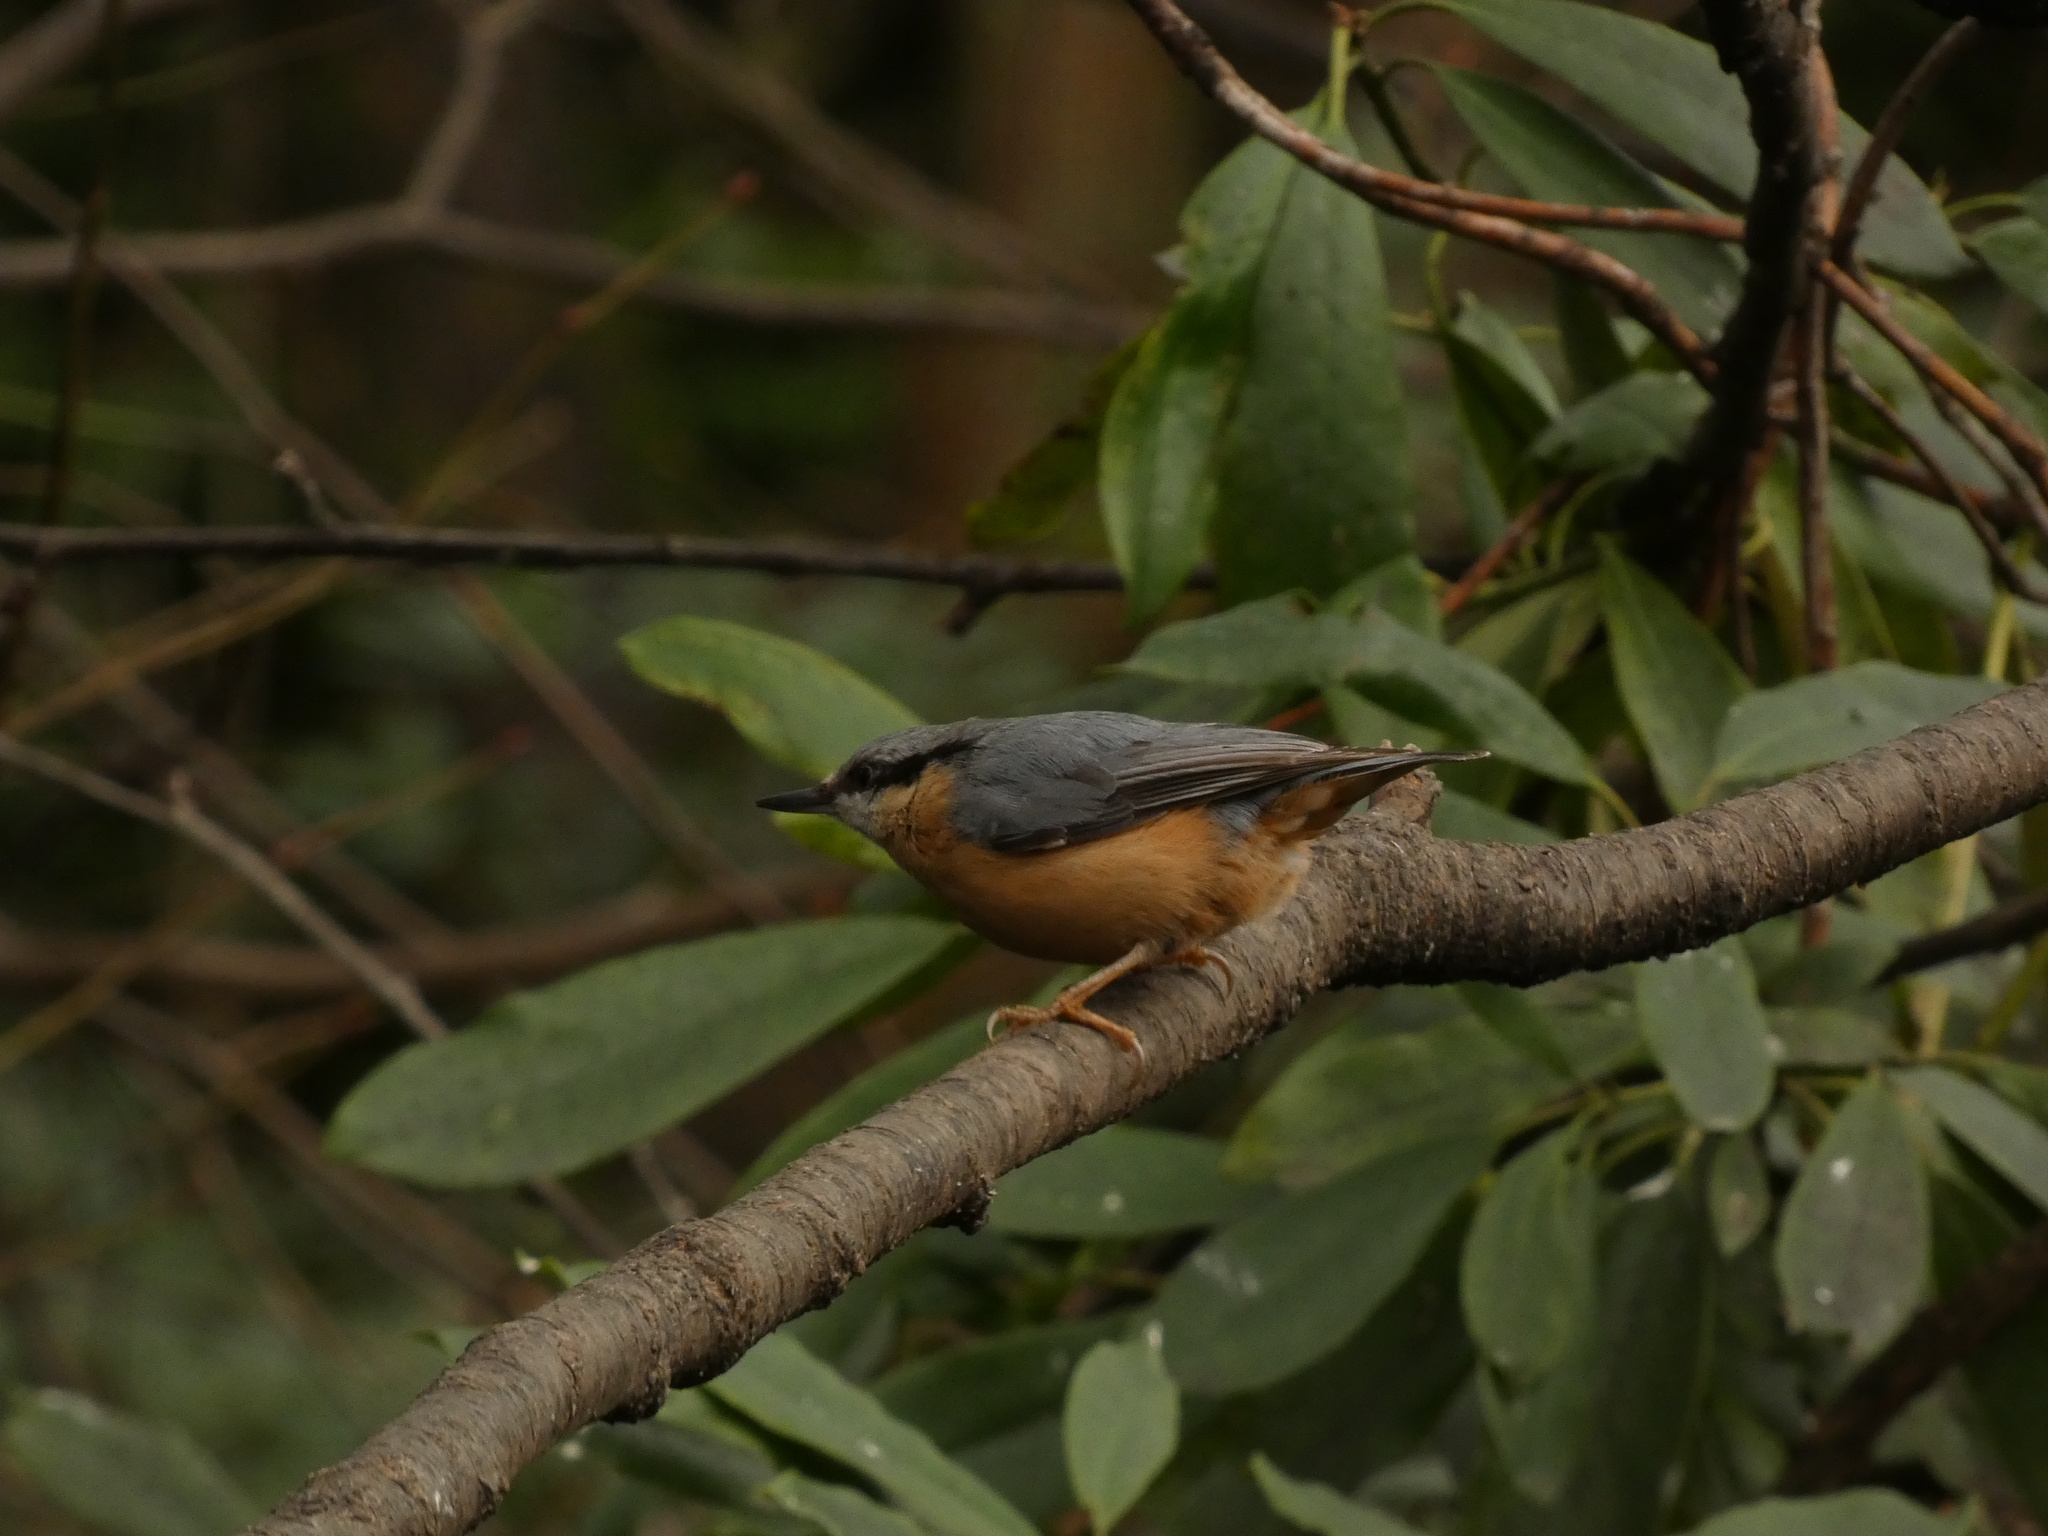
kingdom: Animalia
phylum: Chordata
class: Aves
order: Passeriformes
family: Sittidae
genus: Sitta
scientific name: Sitta europaea
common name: Eurasian nuthatch
